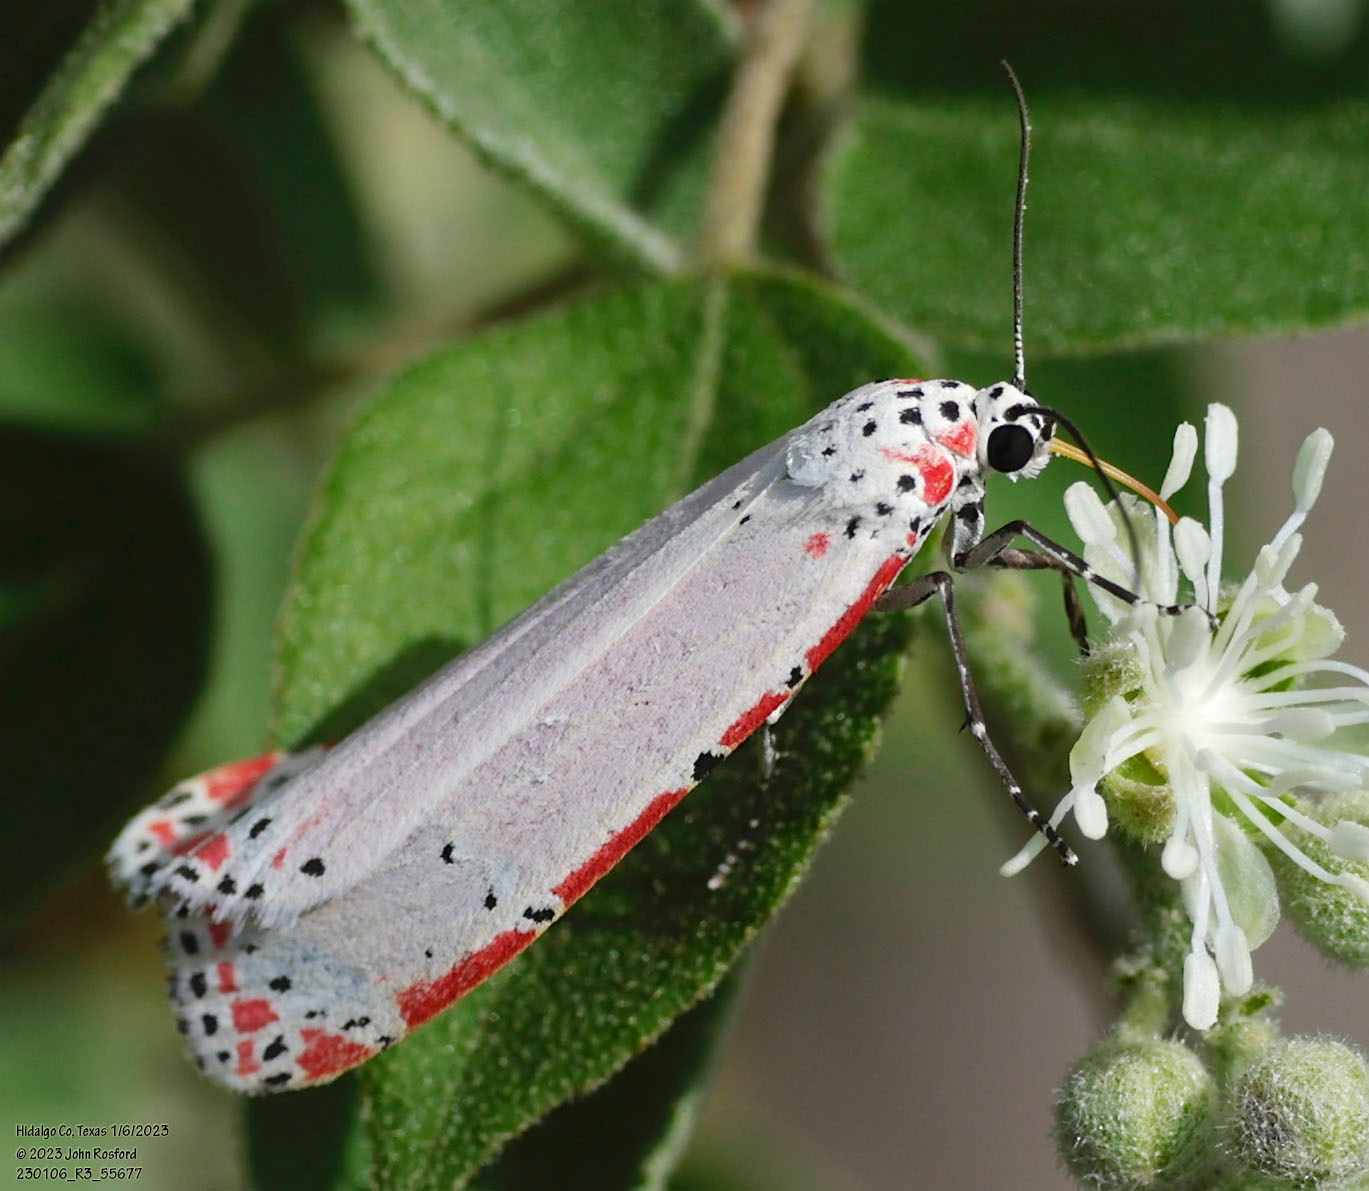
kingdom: Animalia
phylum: Arthropoda
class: Insecta
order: Lepidoptera
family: Erebidae
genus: Utetheisa
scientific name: Utetheisa ornatrix
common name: Beautiful utetheisa
